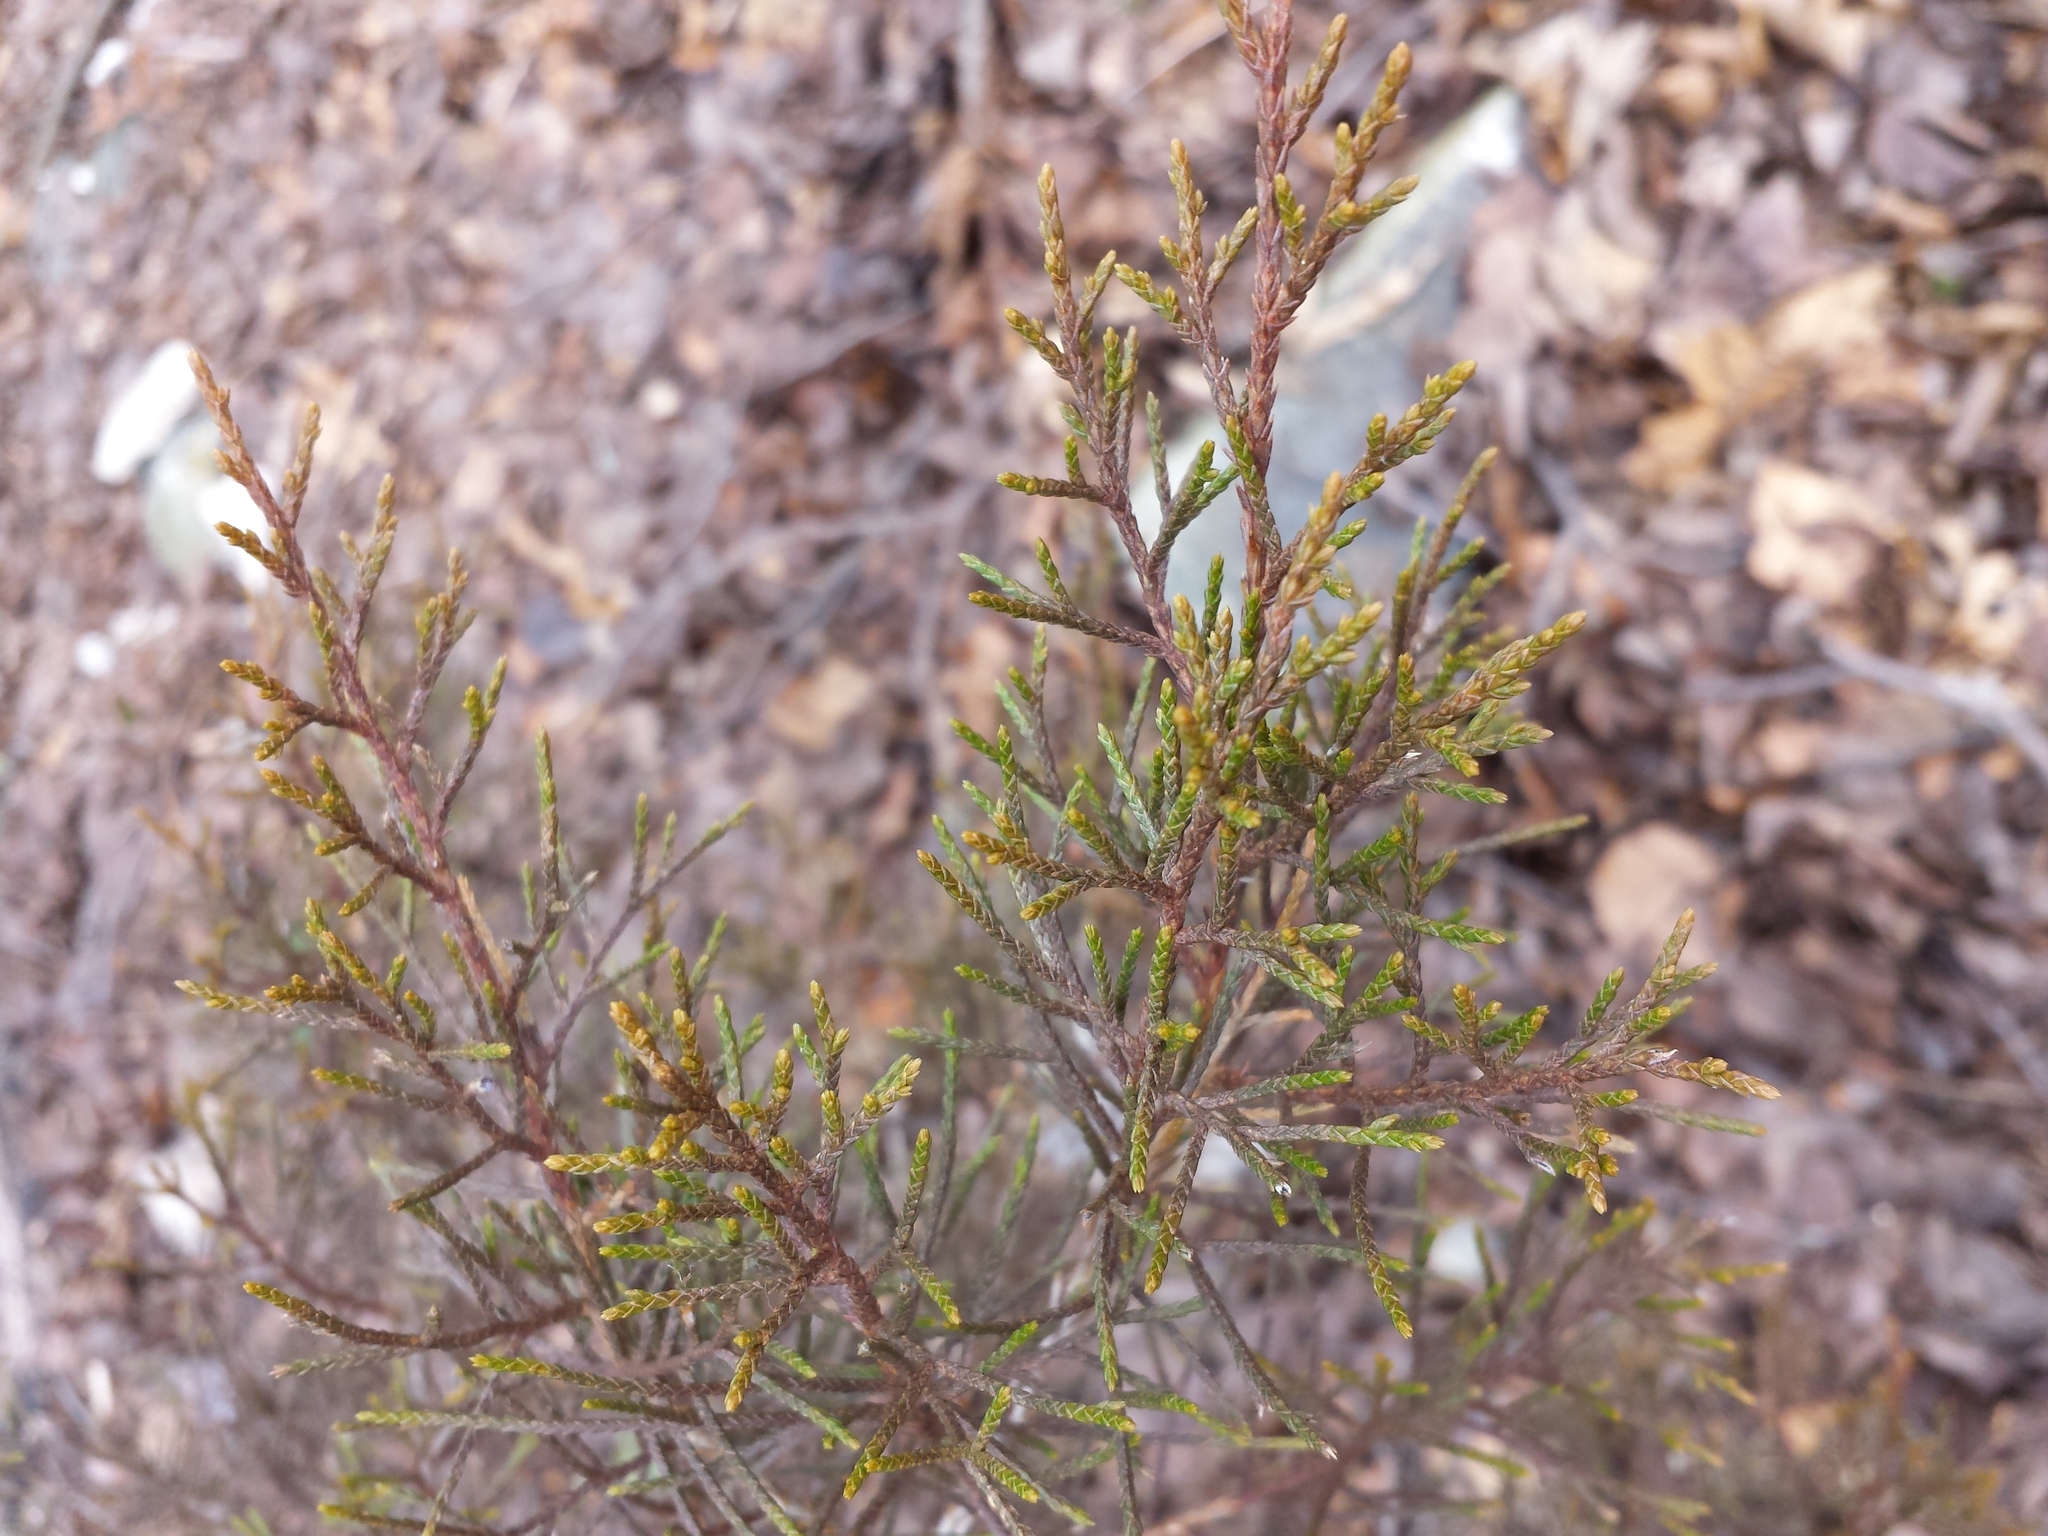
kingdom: Plantae
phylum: Tracheophyta
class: Pinopsida
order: Pinales
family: Cupressaceae
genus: Juniperus
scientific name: Juniperus virginiana
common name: Red juniper
